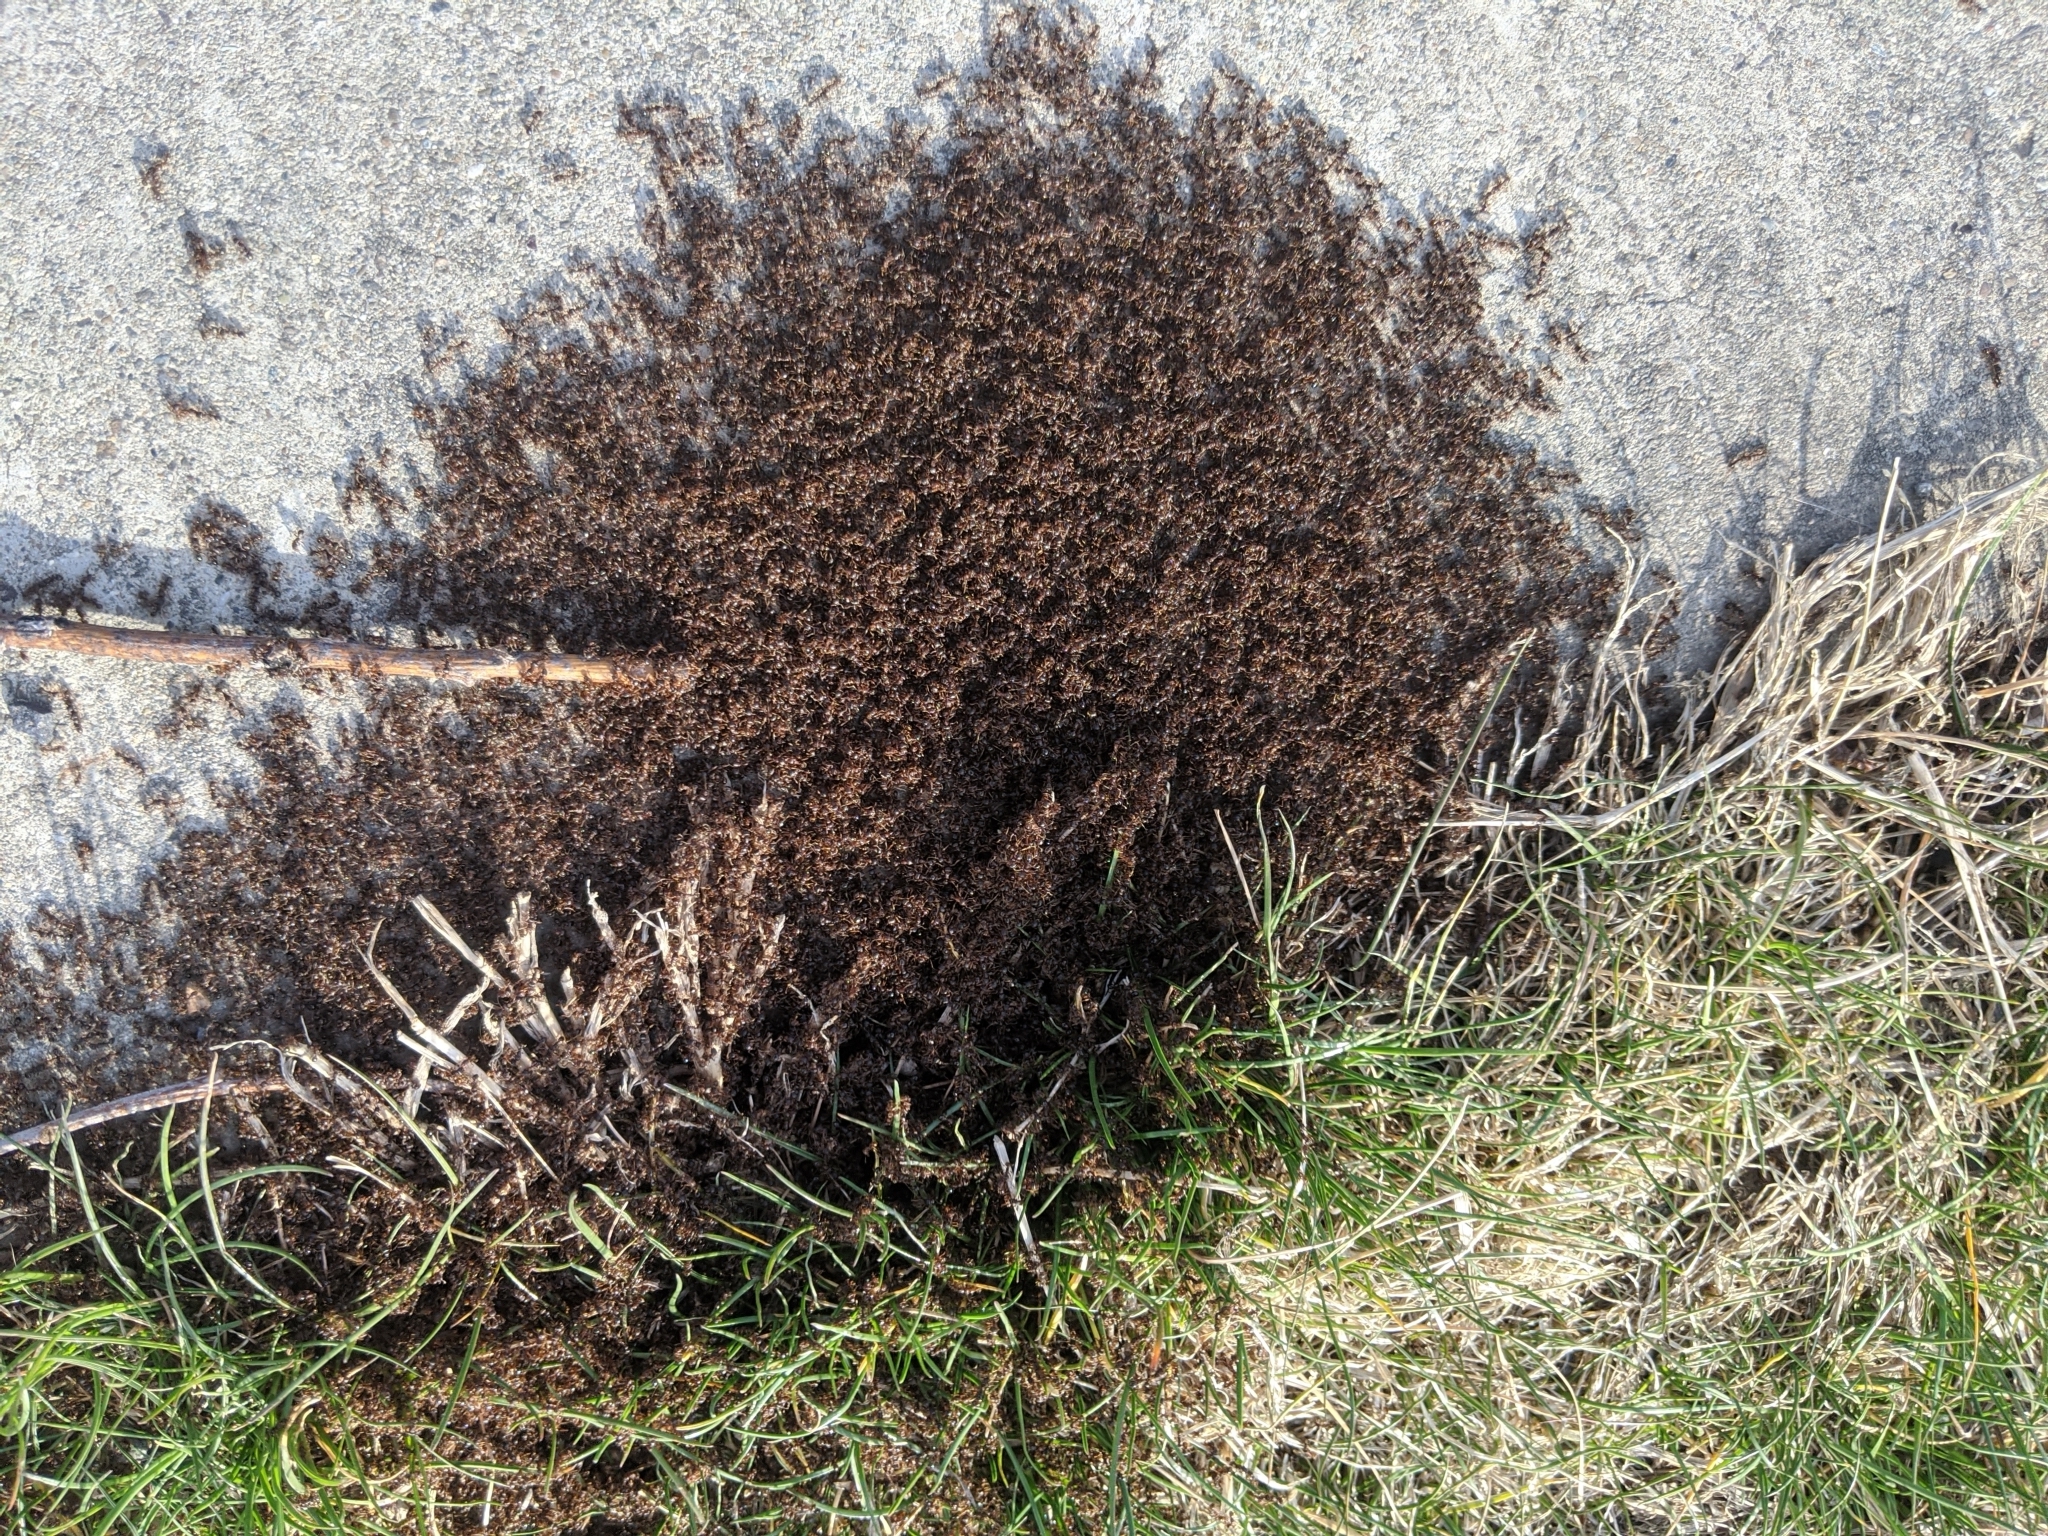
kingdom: Animalia
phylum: Arthropoda
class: Insecta
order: Hymenoptera
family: Formicidae
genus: Tetramorium
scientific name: Tetramorium immigrans
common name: Pavement ant
